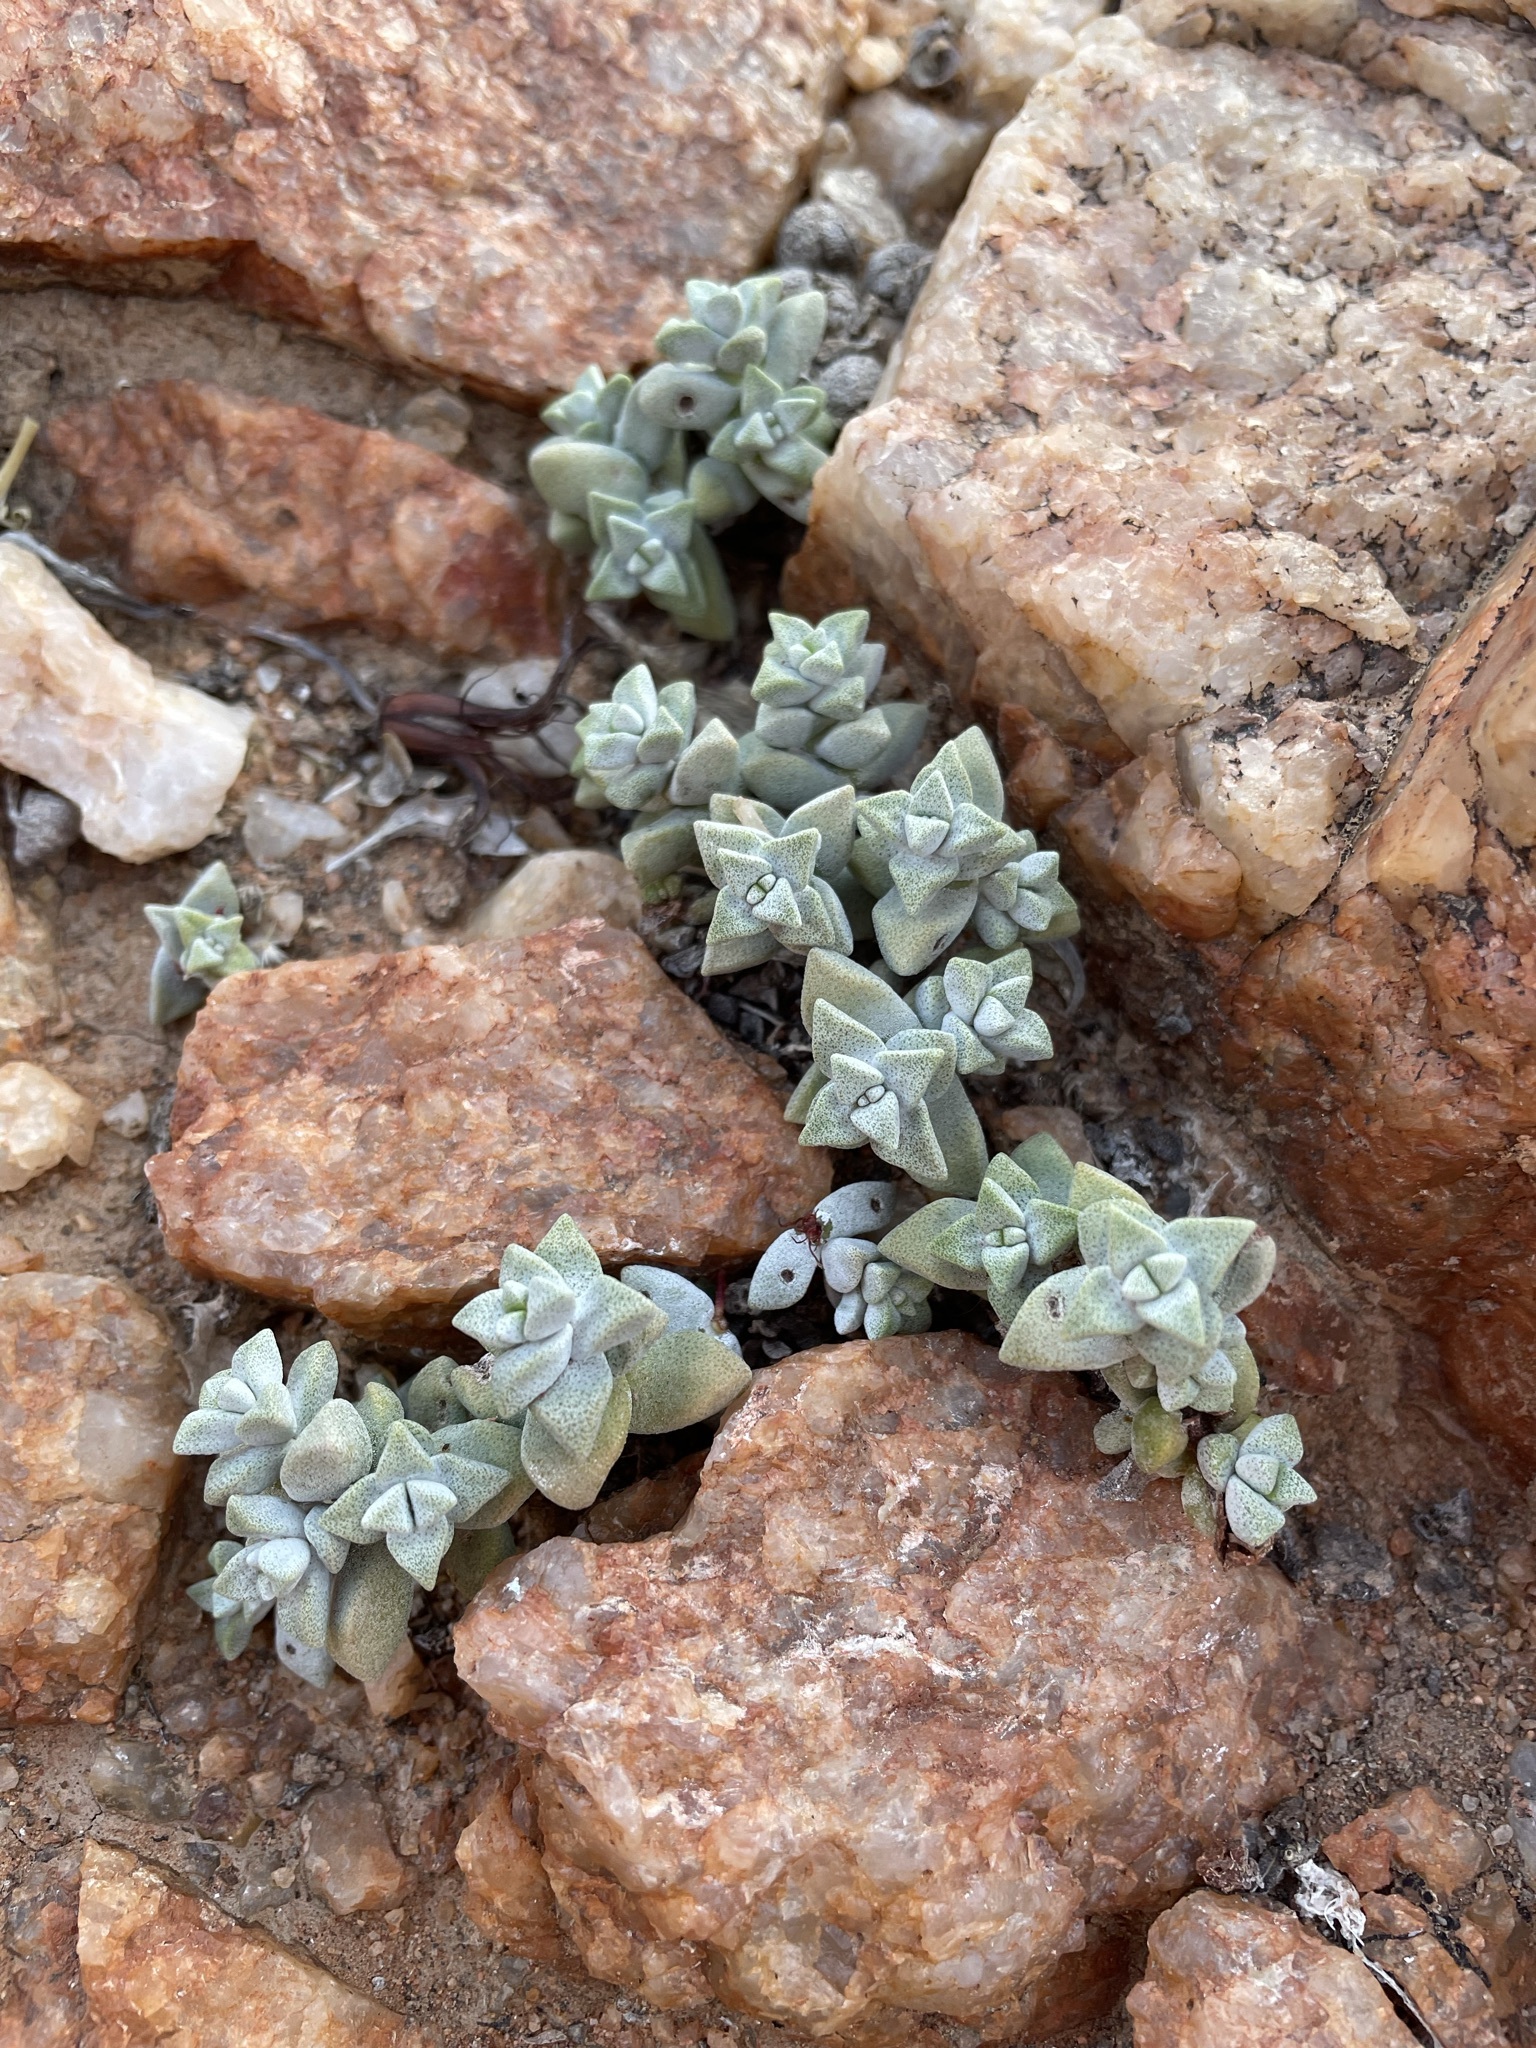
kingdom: Plantae
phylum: Tracheophyta
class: Magnoliopsida
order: Saxifragales
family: Crassulaceae
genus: Crassula
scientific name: Crassula deltoidea
